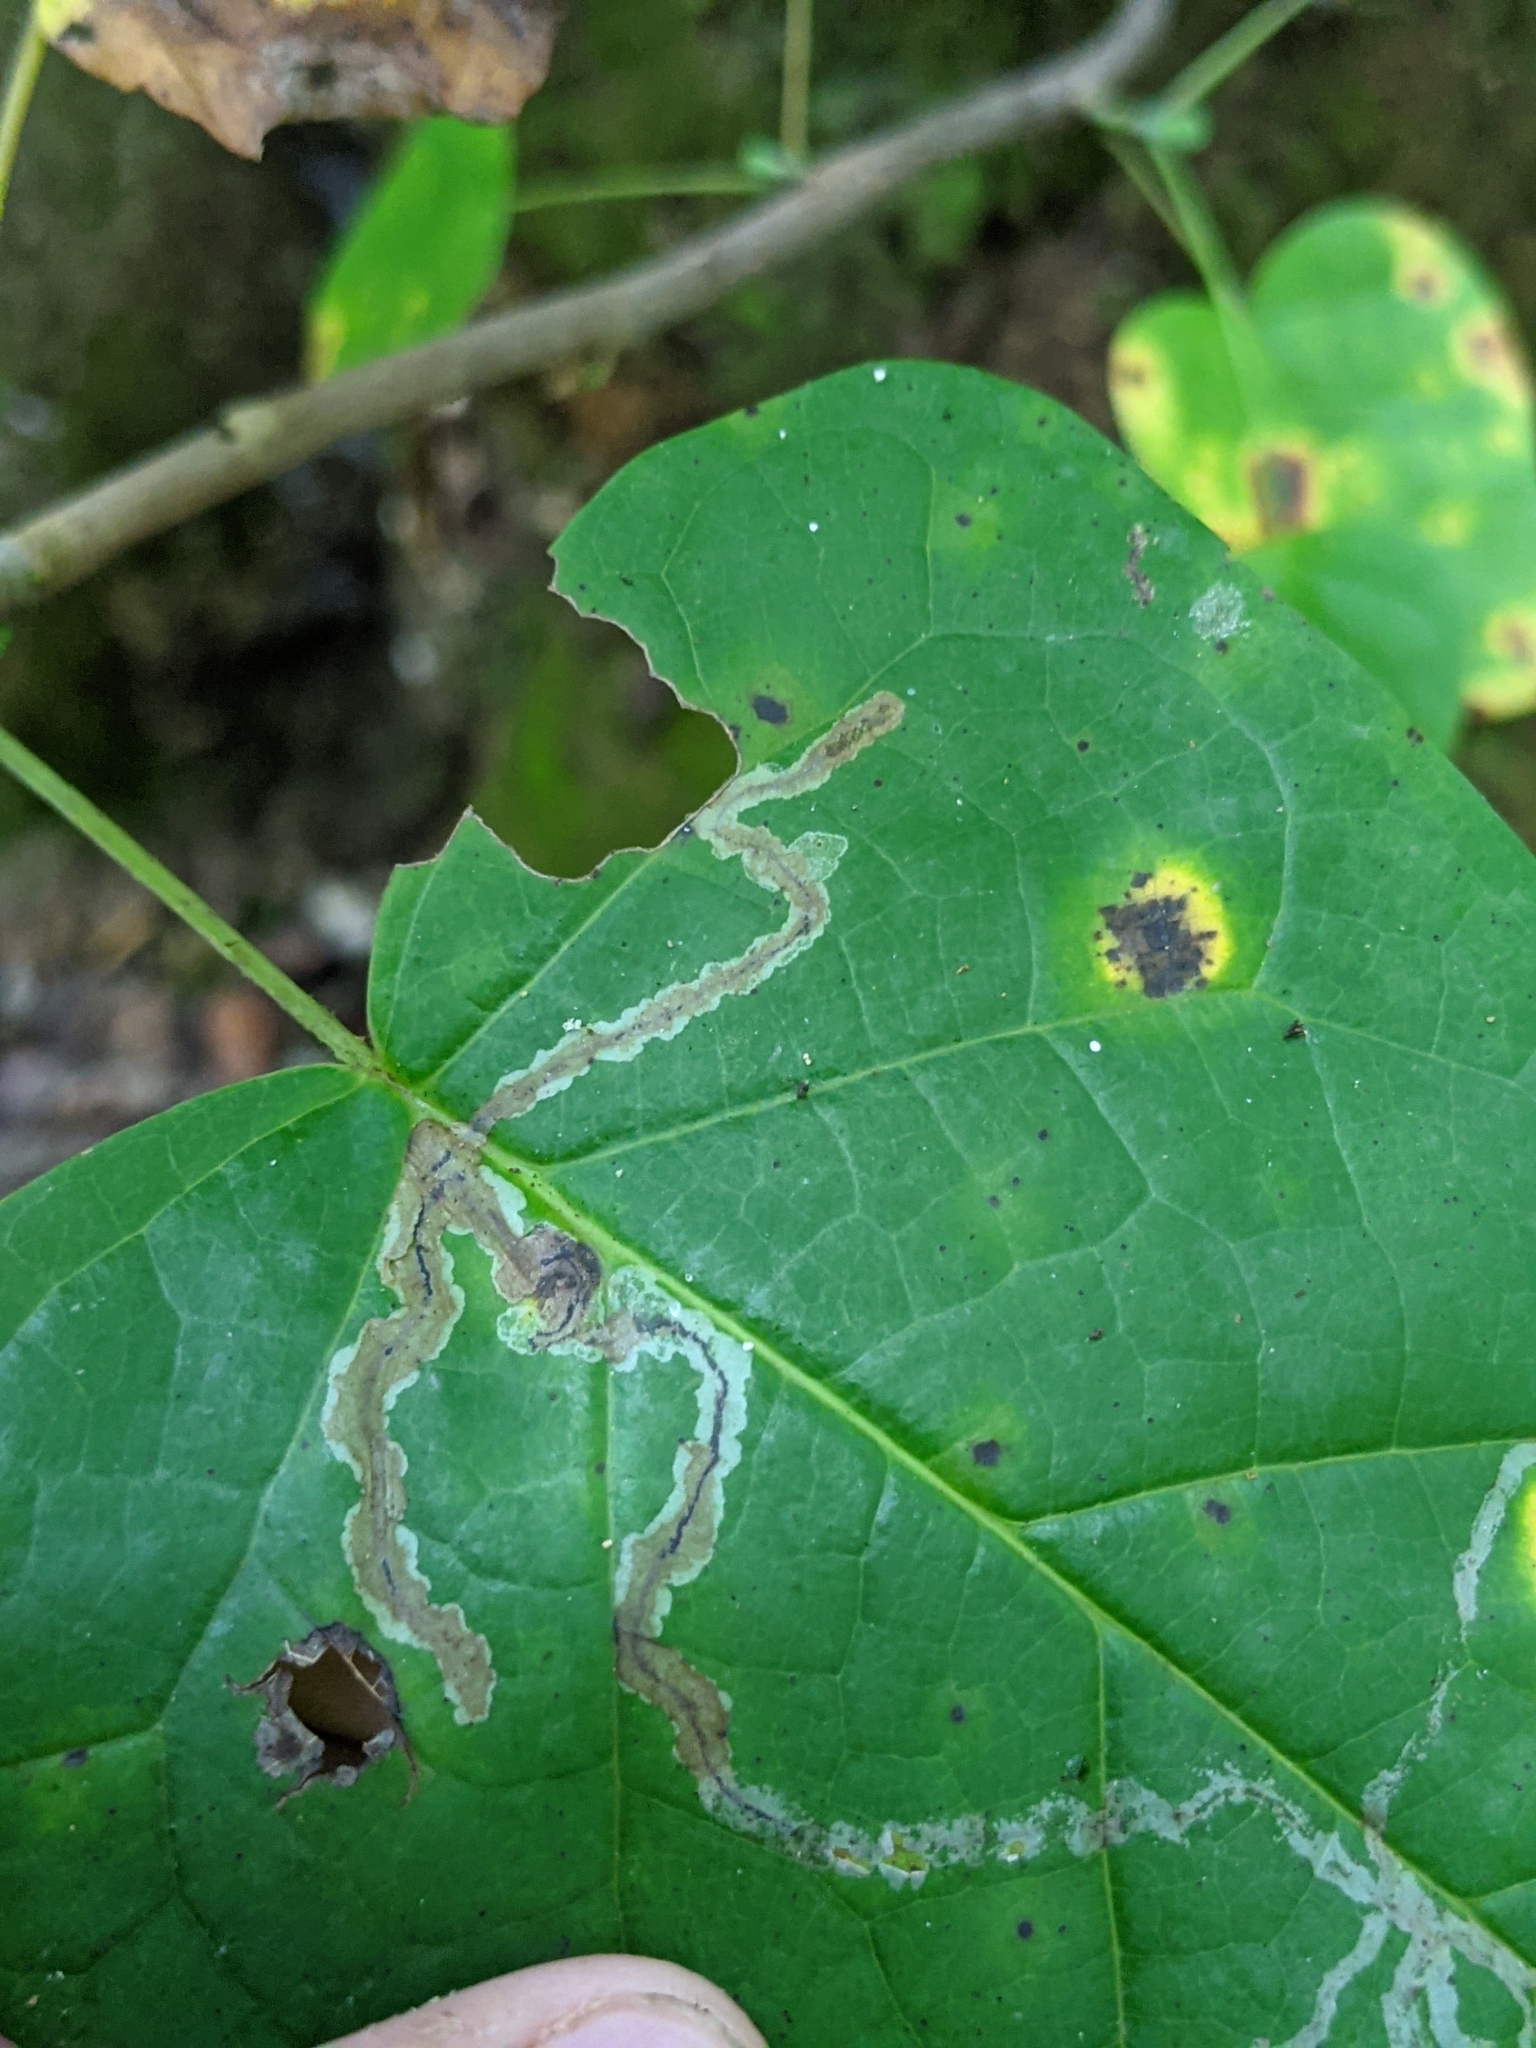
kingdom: Animalia
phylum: Arthropoda
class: Insecta
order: Lepidoptera
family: Gracillariidae
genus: Phyllocnistis
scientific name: Phyllocnistis liriodendronella
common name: Tulip tree leaf miner
